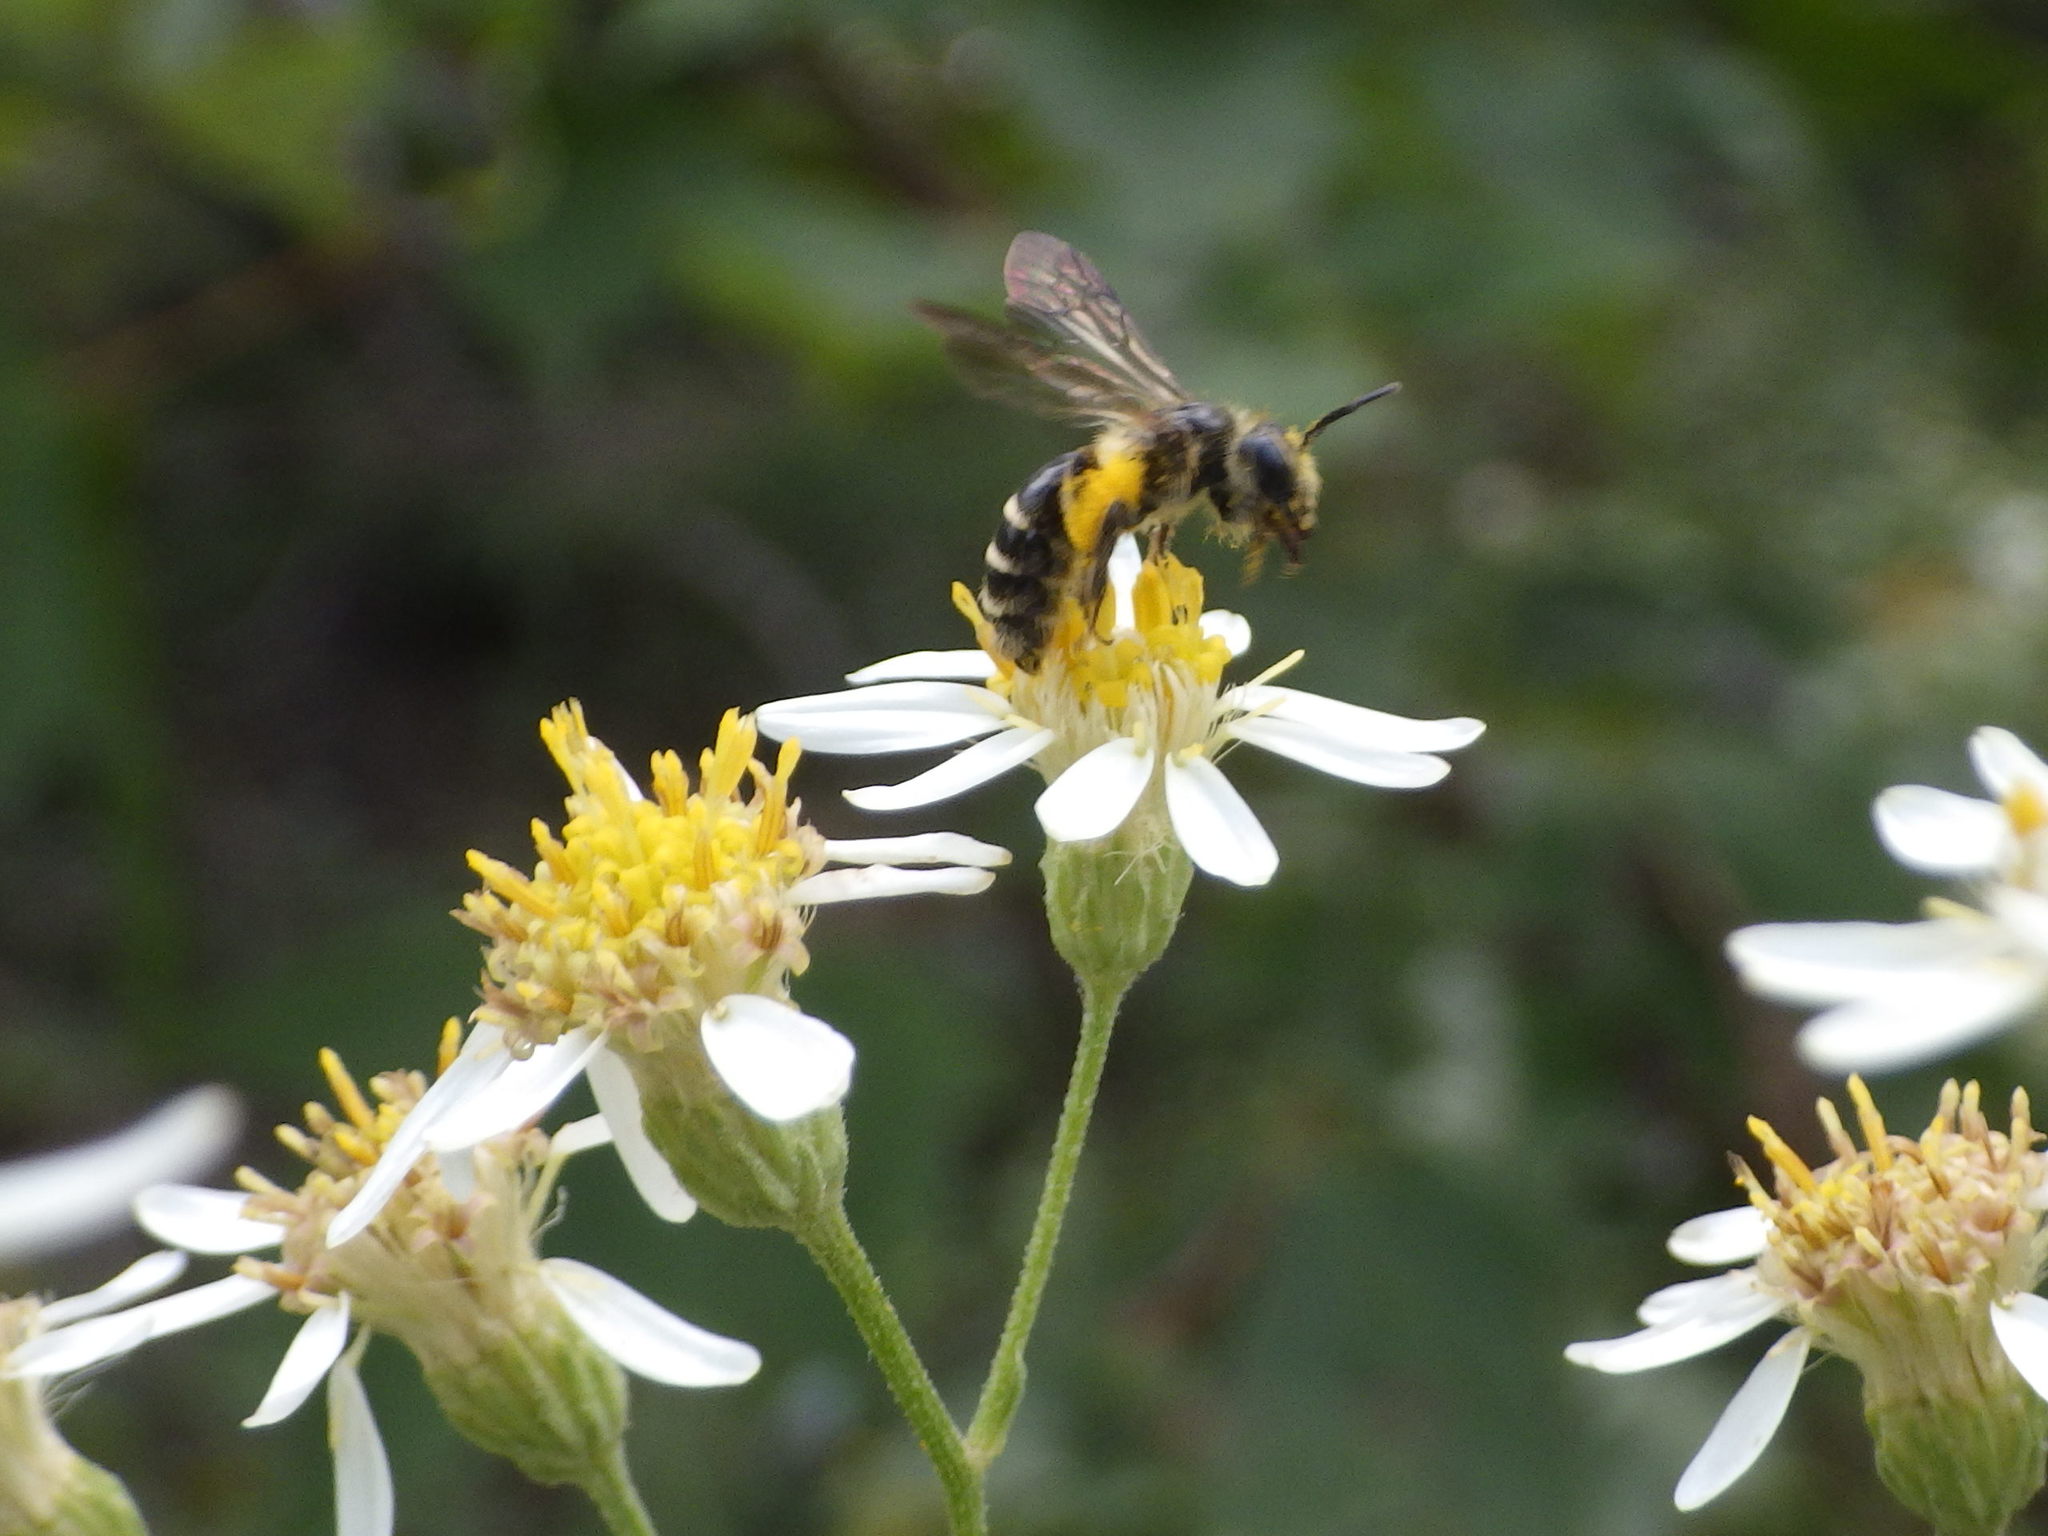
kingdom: Animalia
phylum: Arthropoda
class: Insecta
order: Hymenoptera
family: Andrenidae
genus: Andrena
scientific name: Andrena nubecula
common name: Cloudy-winged mining bee
